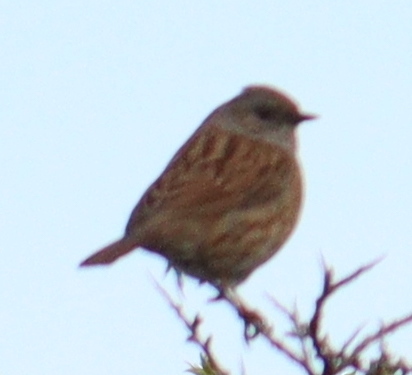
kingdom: Animalia
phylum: Chordata
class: Aves
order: Passeriformes
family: Prunellidae
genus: Prunella
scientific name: Prunella modularis
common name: Dunnock
